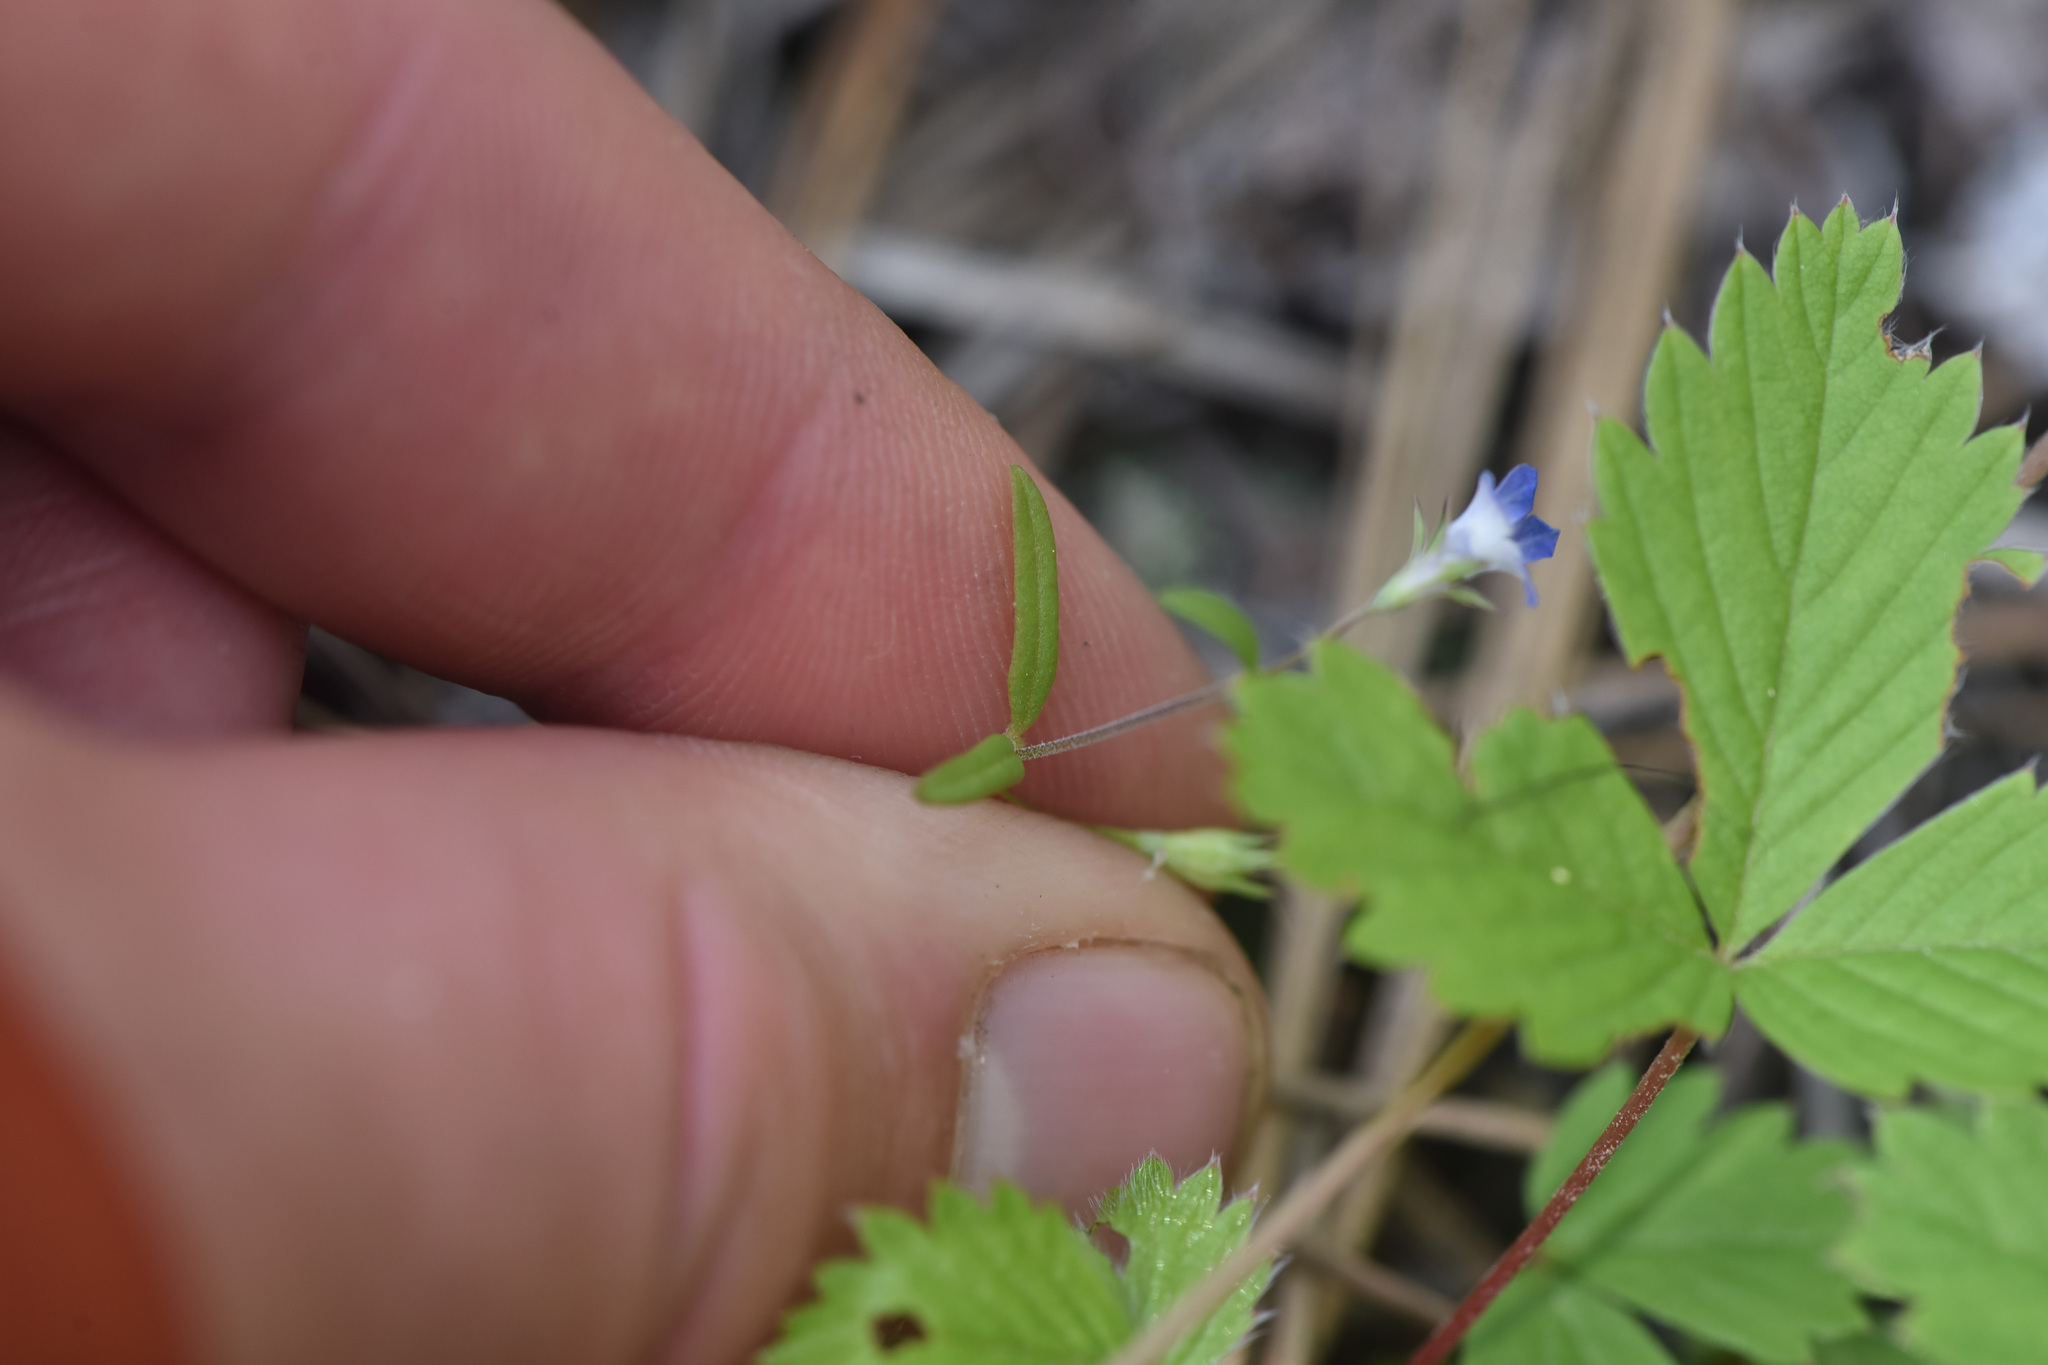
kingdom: Plantae
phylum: Tracheophyta
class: Magnoliopsida
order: Lamiales
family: Plantaginaceae
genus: Collinsia
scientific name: Collinsia parviflora
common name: Blue-lips
